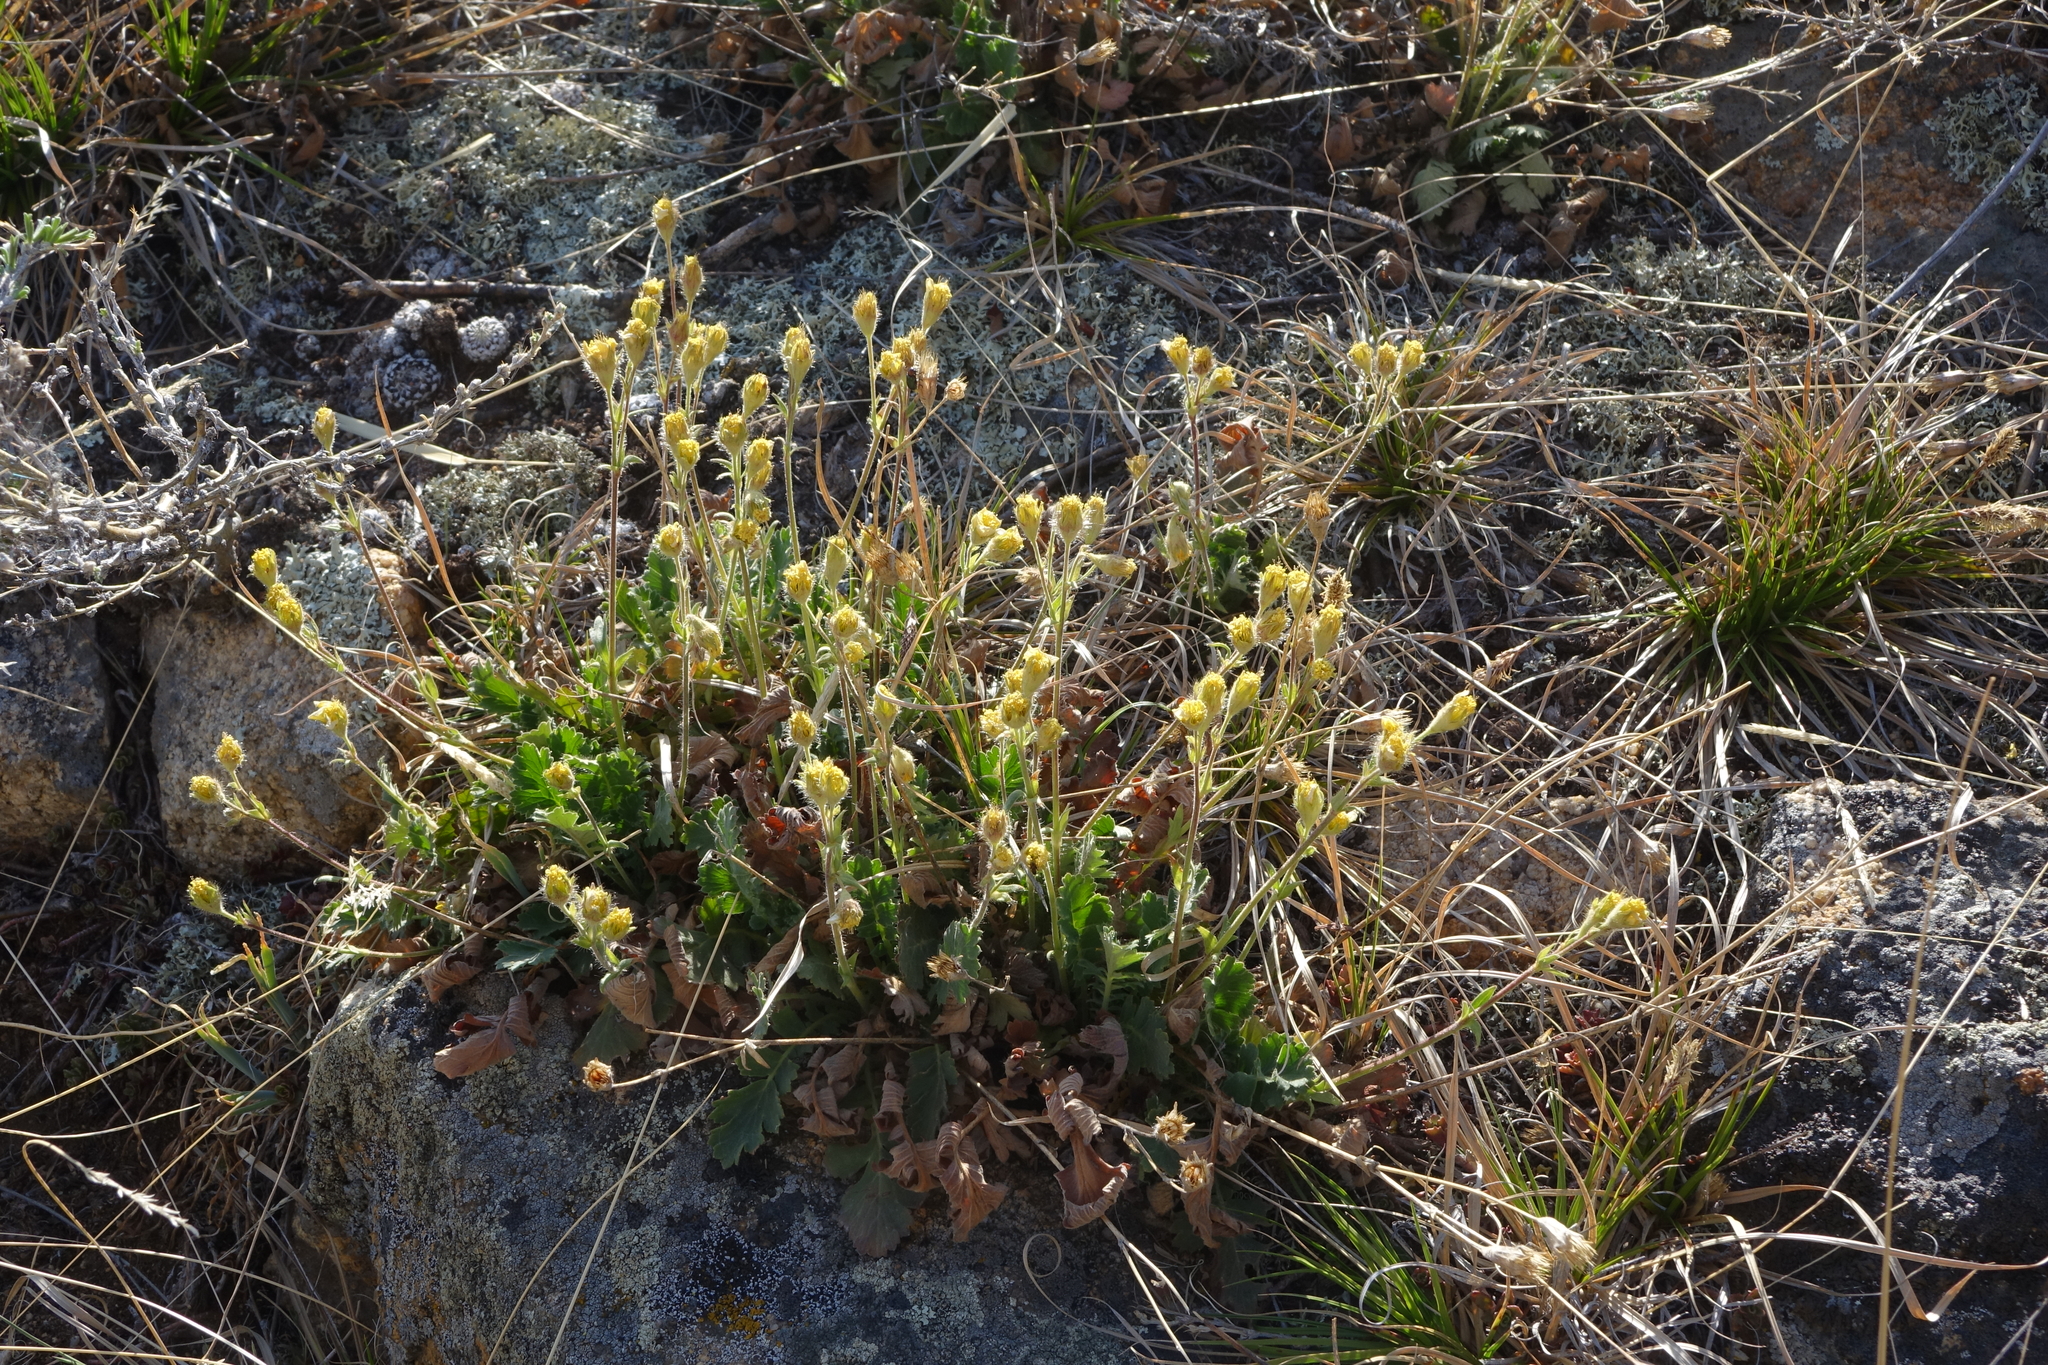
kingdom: Plantae
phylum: Tracheophyta
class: Magnoliopsida
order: Rosales
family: Rosaceae
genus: Geum
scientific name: Geum geoides
